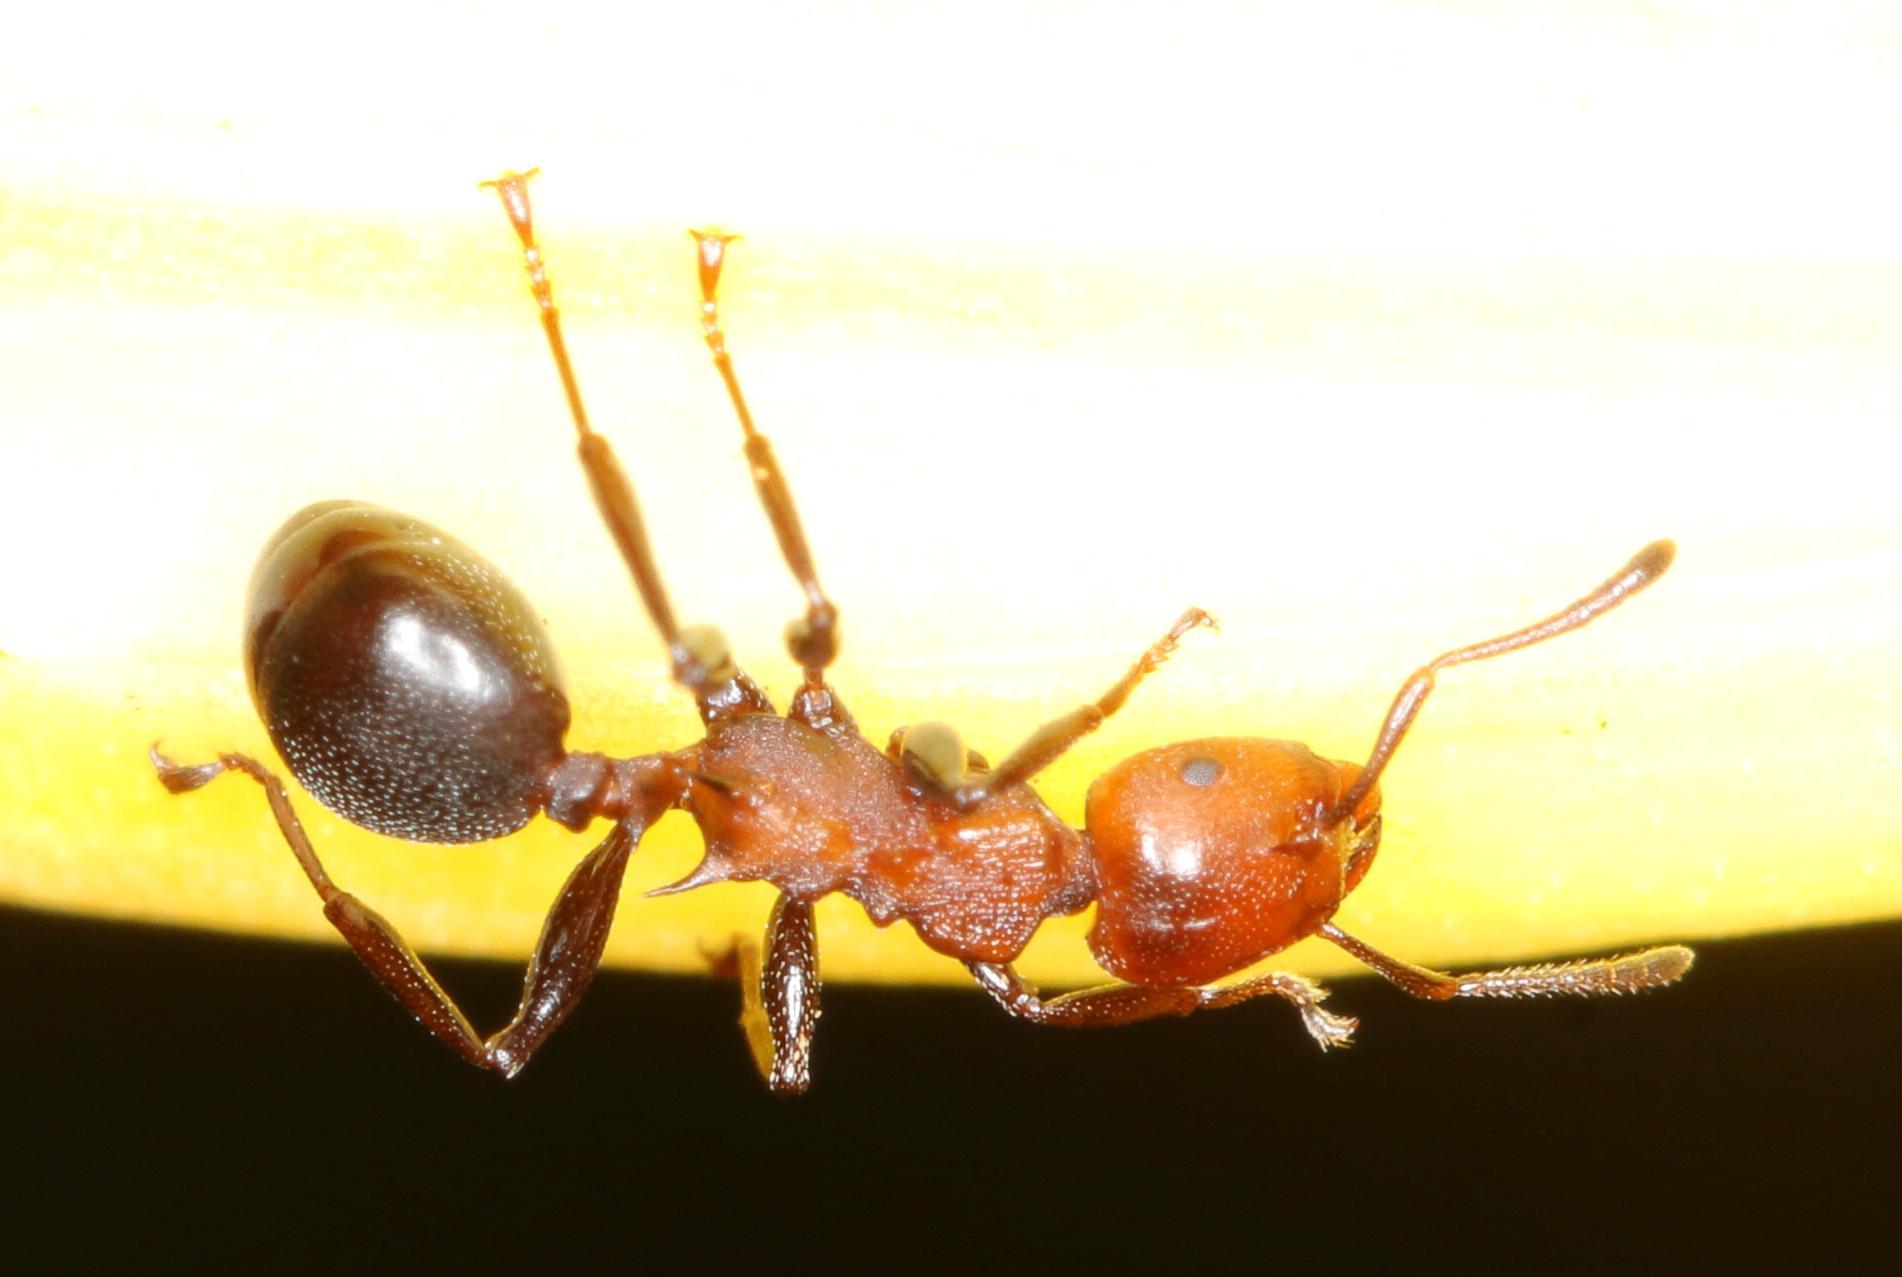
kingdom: Animalia
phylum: Arthropoda
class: Insecta
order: Hymenoptera
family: Formicidae
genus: Atopomyrmex
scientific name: Atopomyrmex mocquerysi
